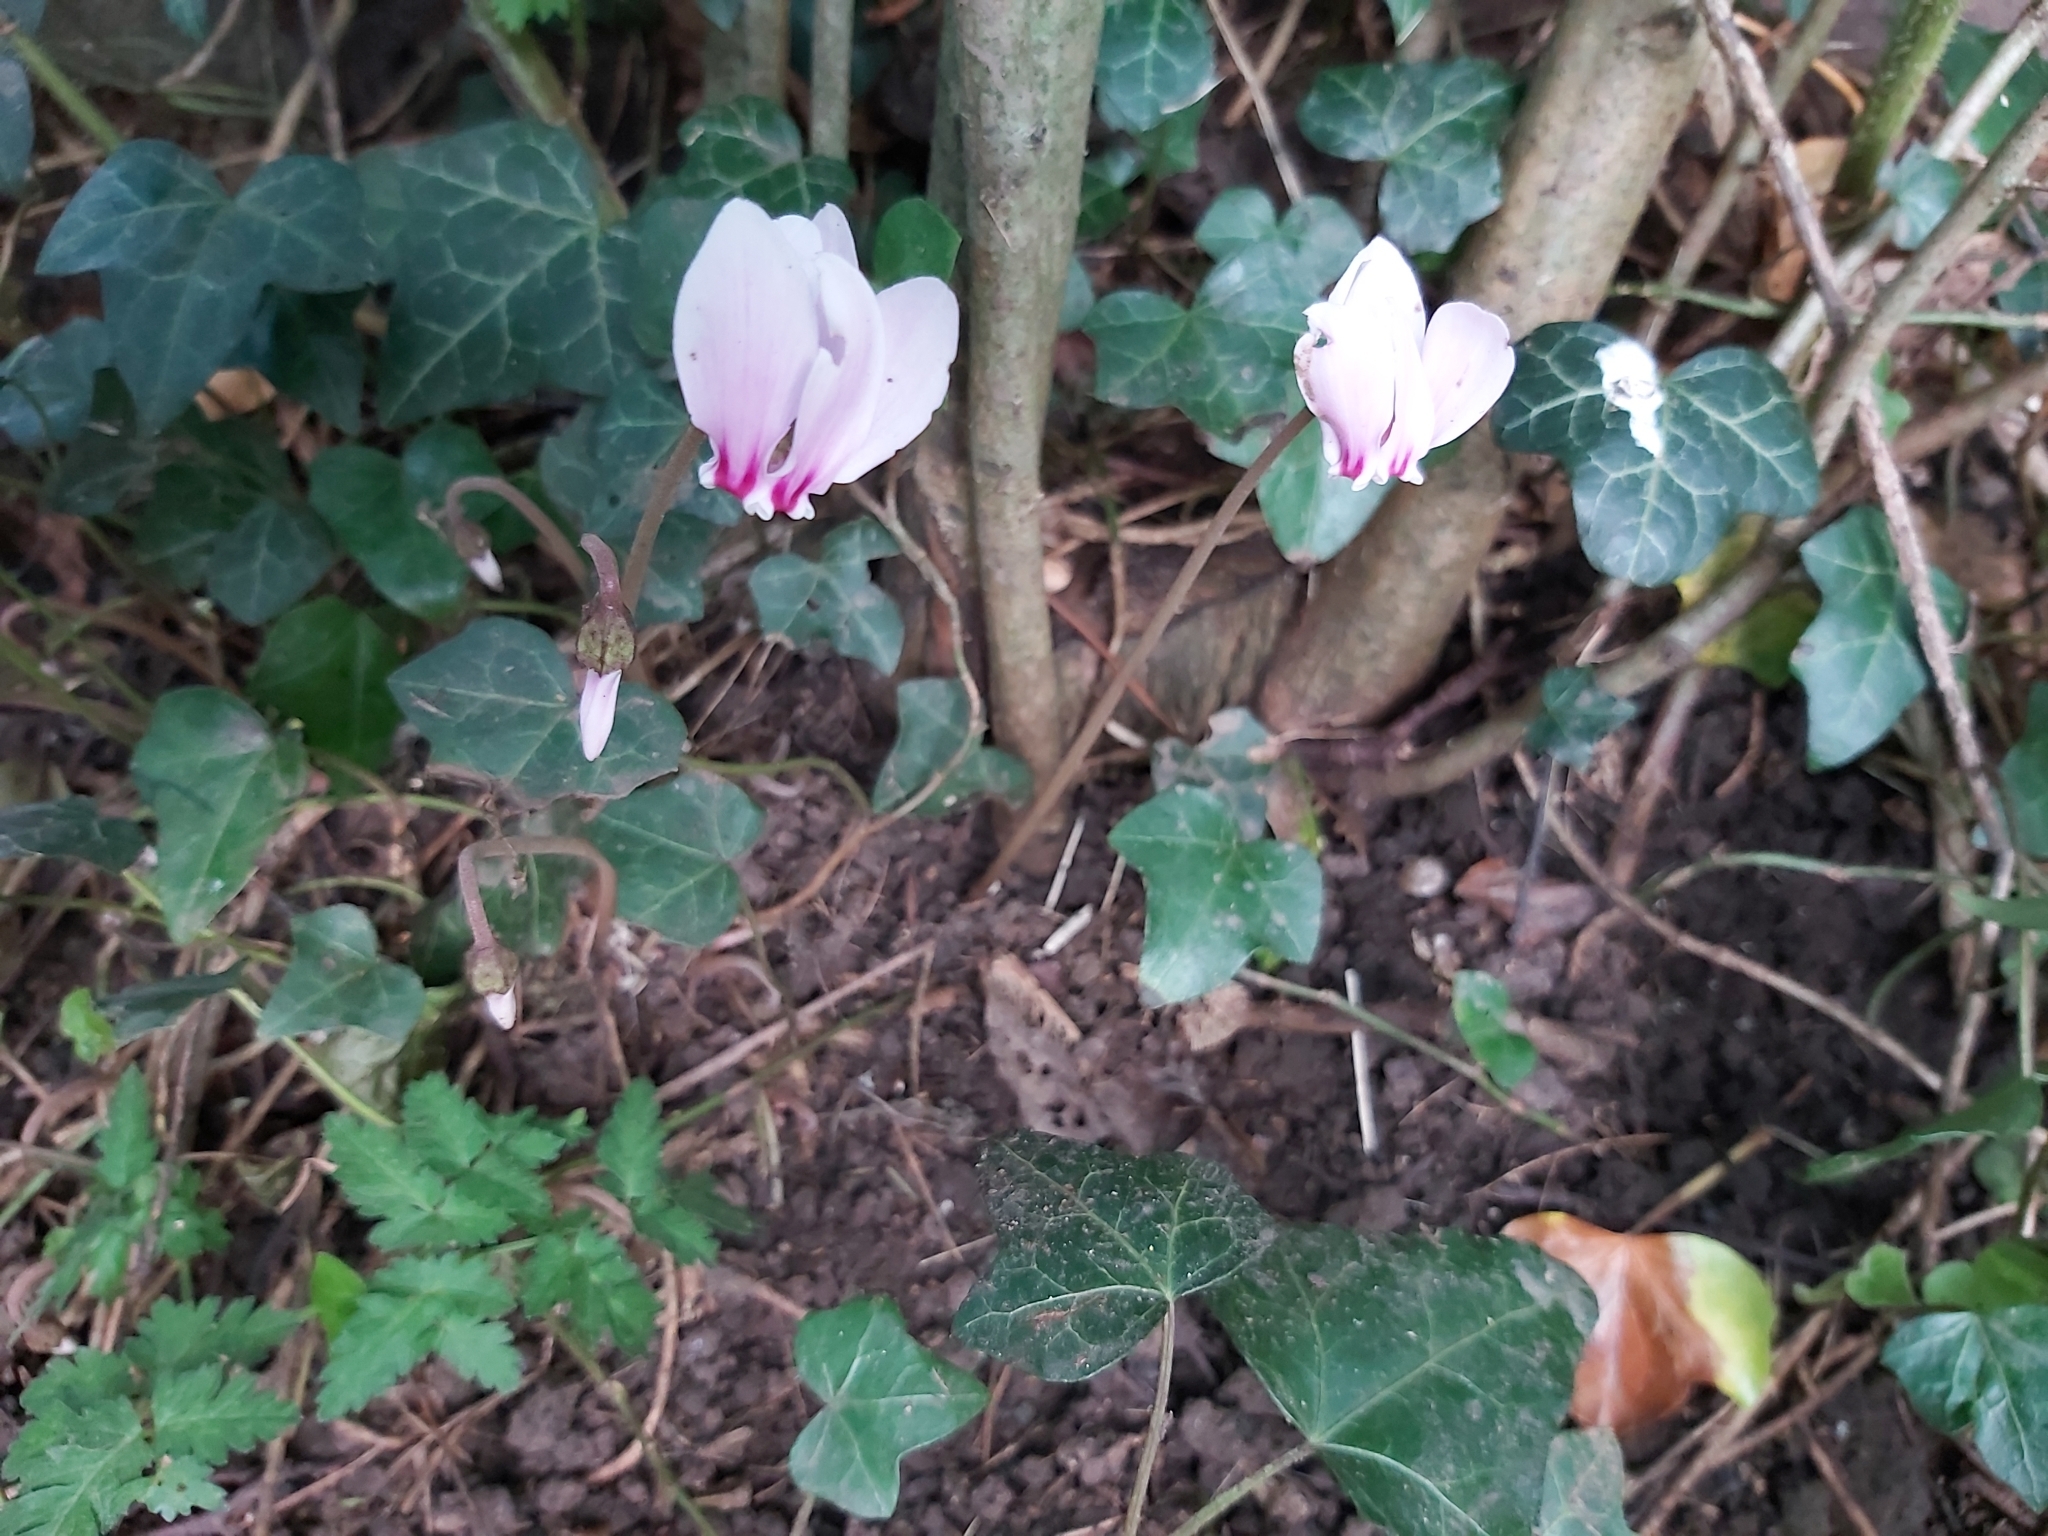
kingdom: Plantae
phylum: Tracheophyta
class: Magnoliopsida
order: Ericales
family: Primulaceae
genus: Cyclamen
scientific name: Cyclamen hederifolium
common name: Sowbread
